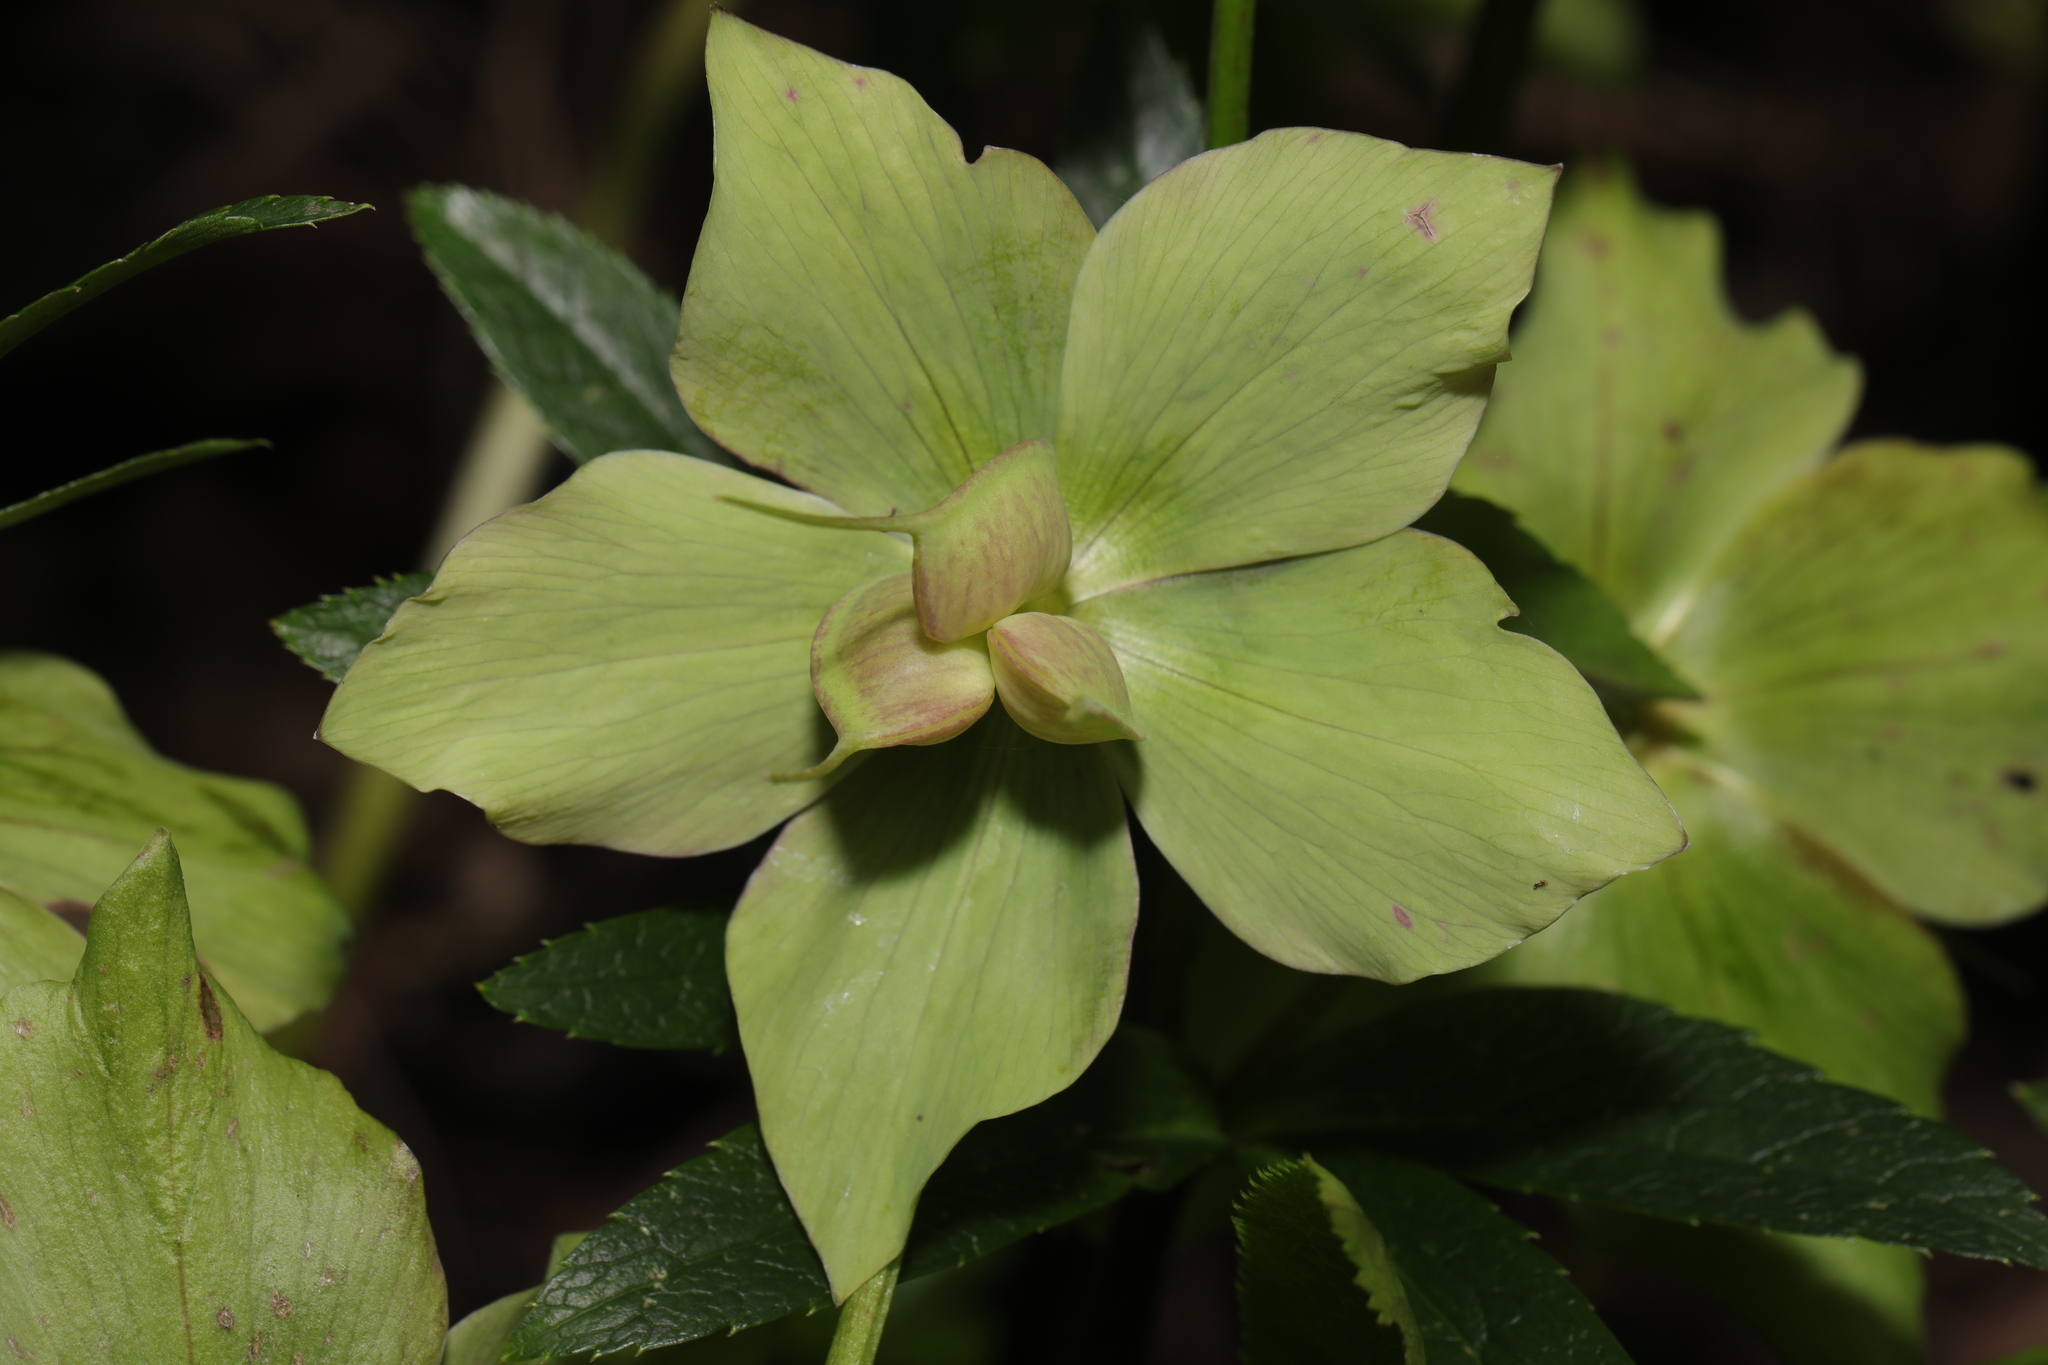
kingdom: Plantae
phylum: Tracheophyta
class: Magnoliopsida
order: Ranunculales
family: Ranunculaceae
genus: Helleborus
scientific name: Helleborus hybridus
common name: Hybrid lenten-rose
